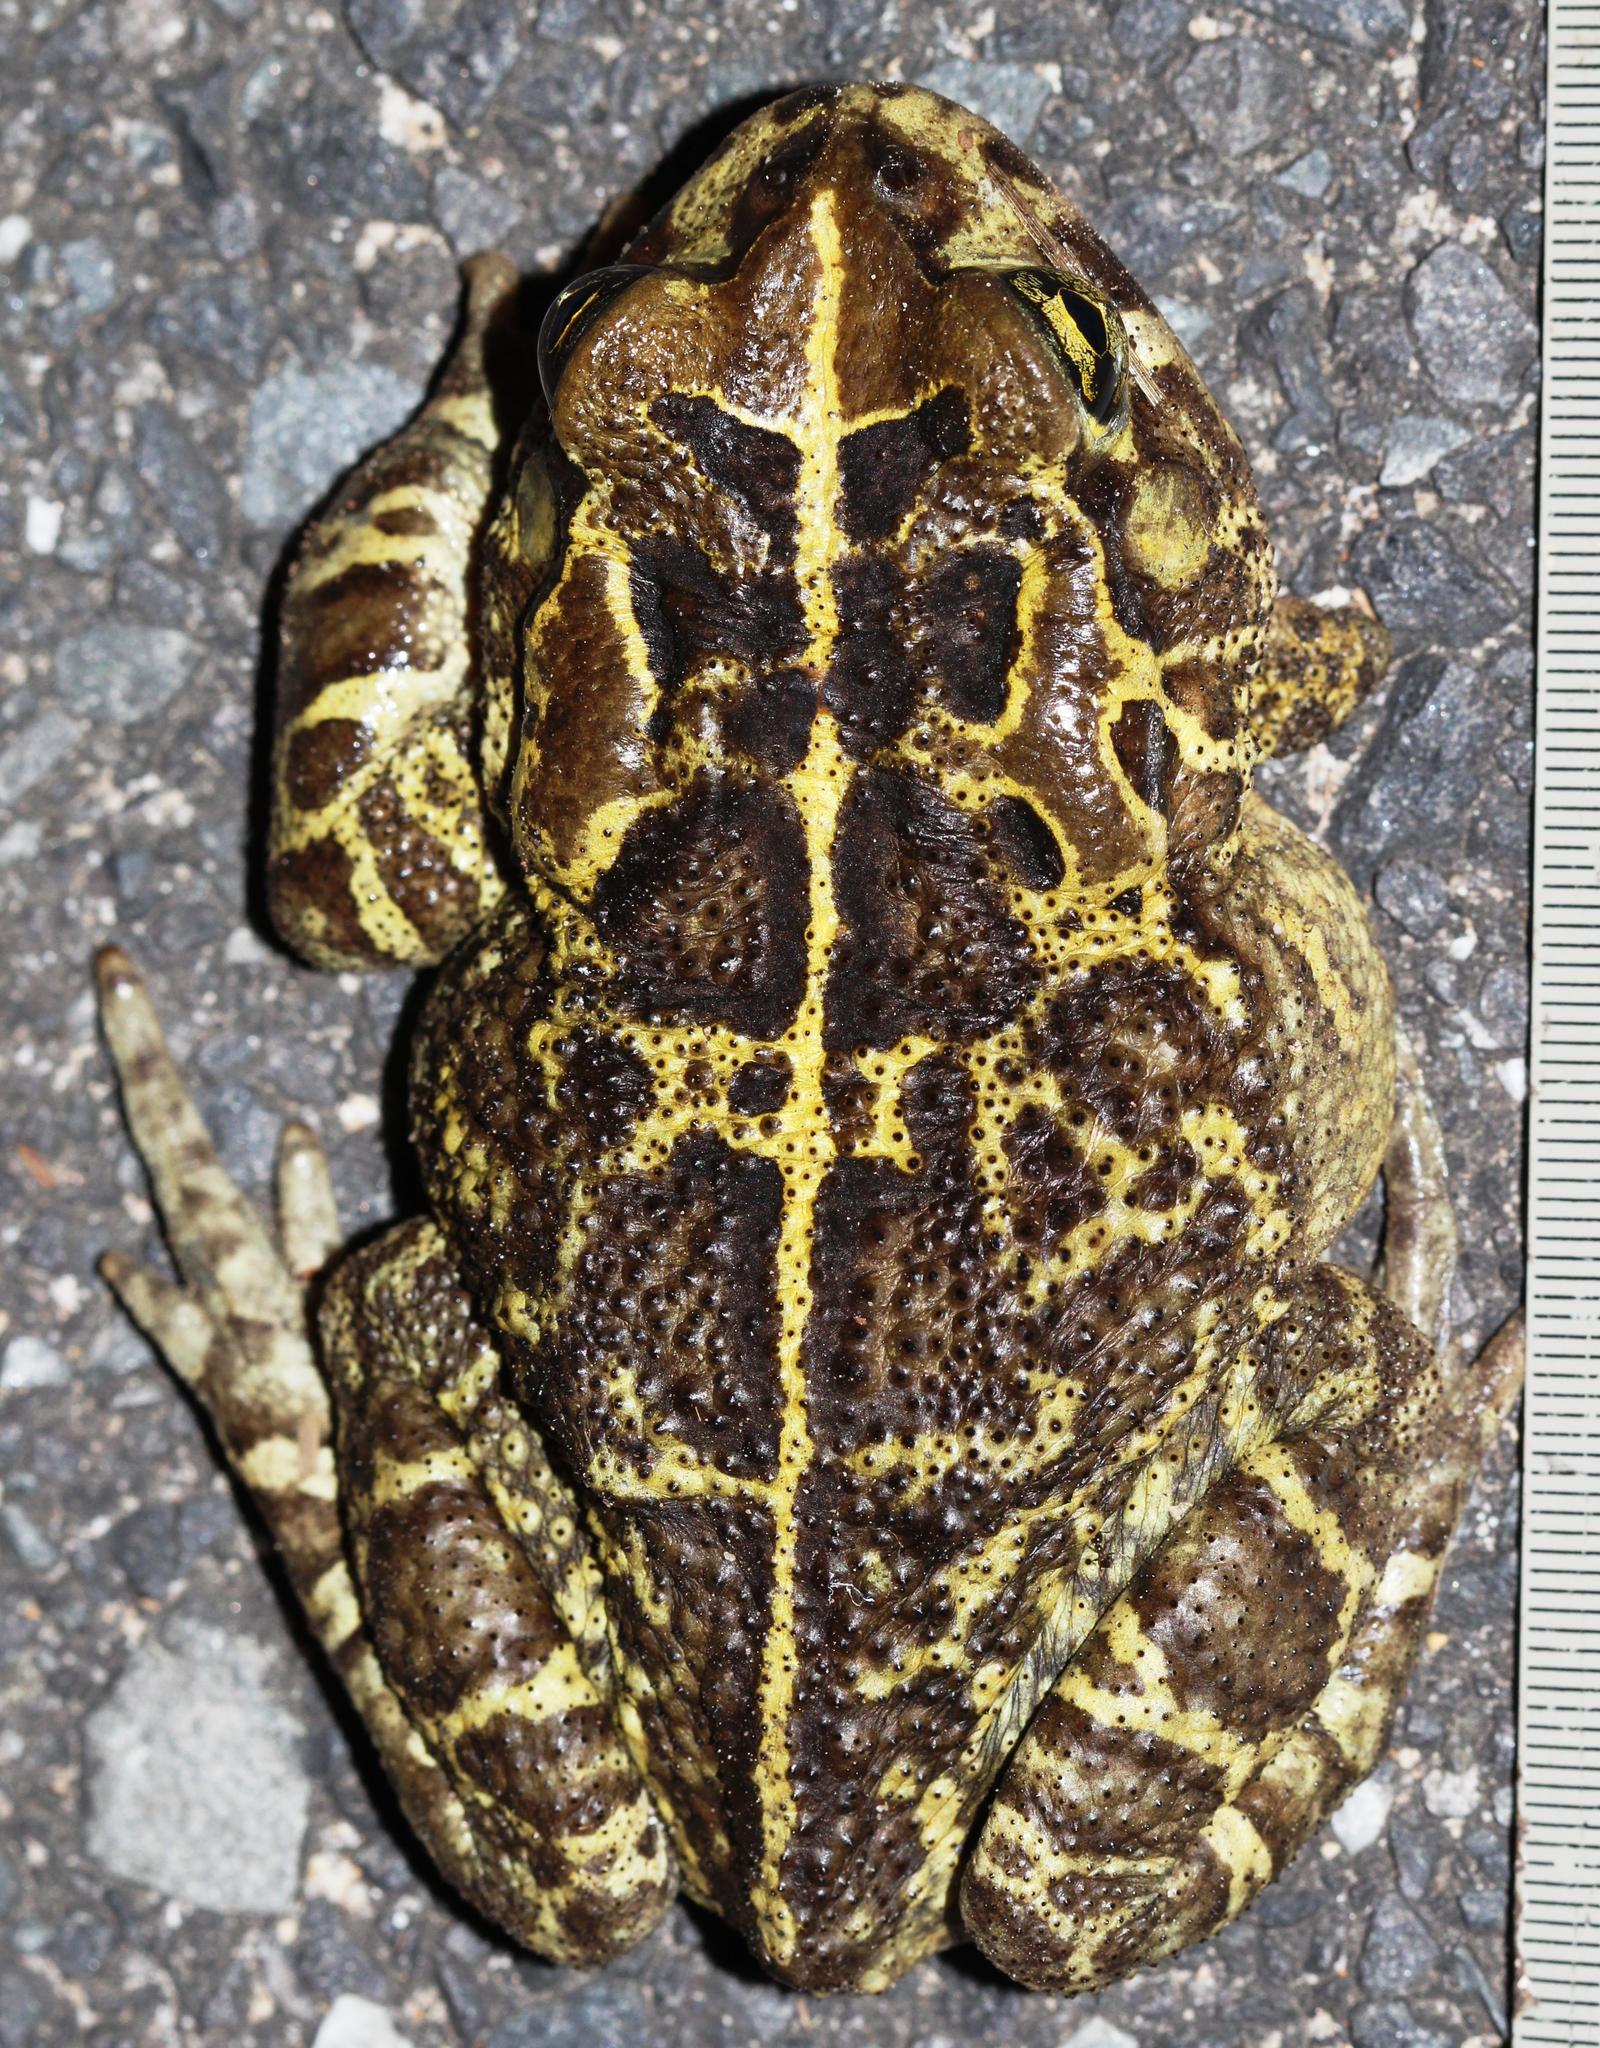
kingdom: Animalia
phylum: Chordata
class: Amphibia
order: Anura
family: Bufonidae
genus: Sclerophrys
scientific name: Sclerophrys pantherina
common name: Panther toad
